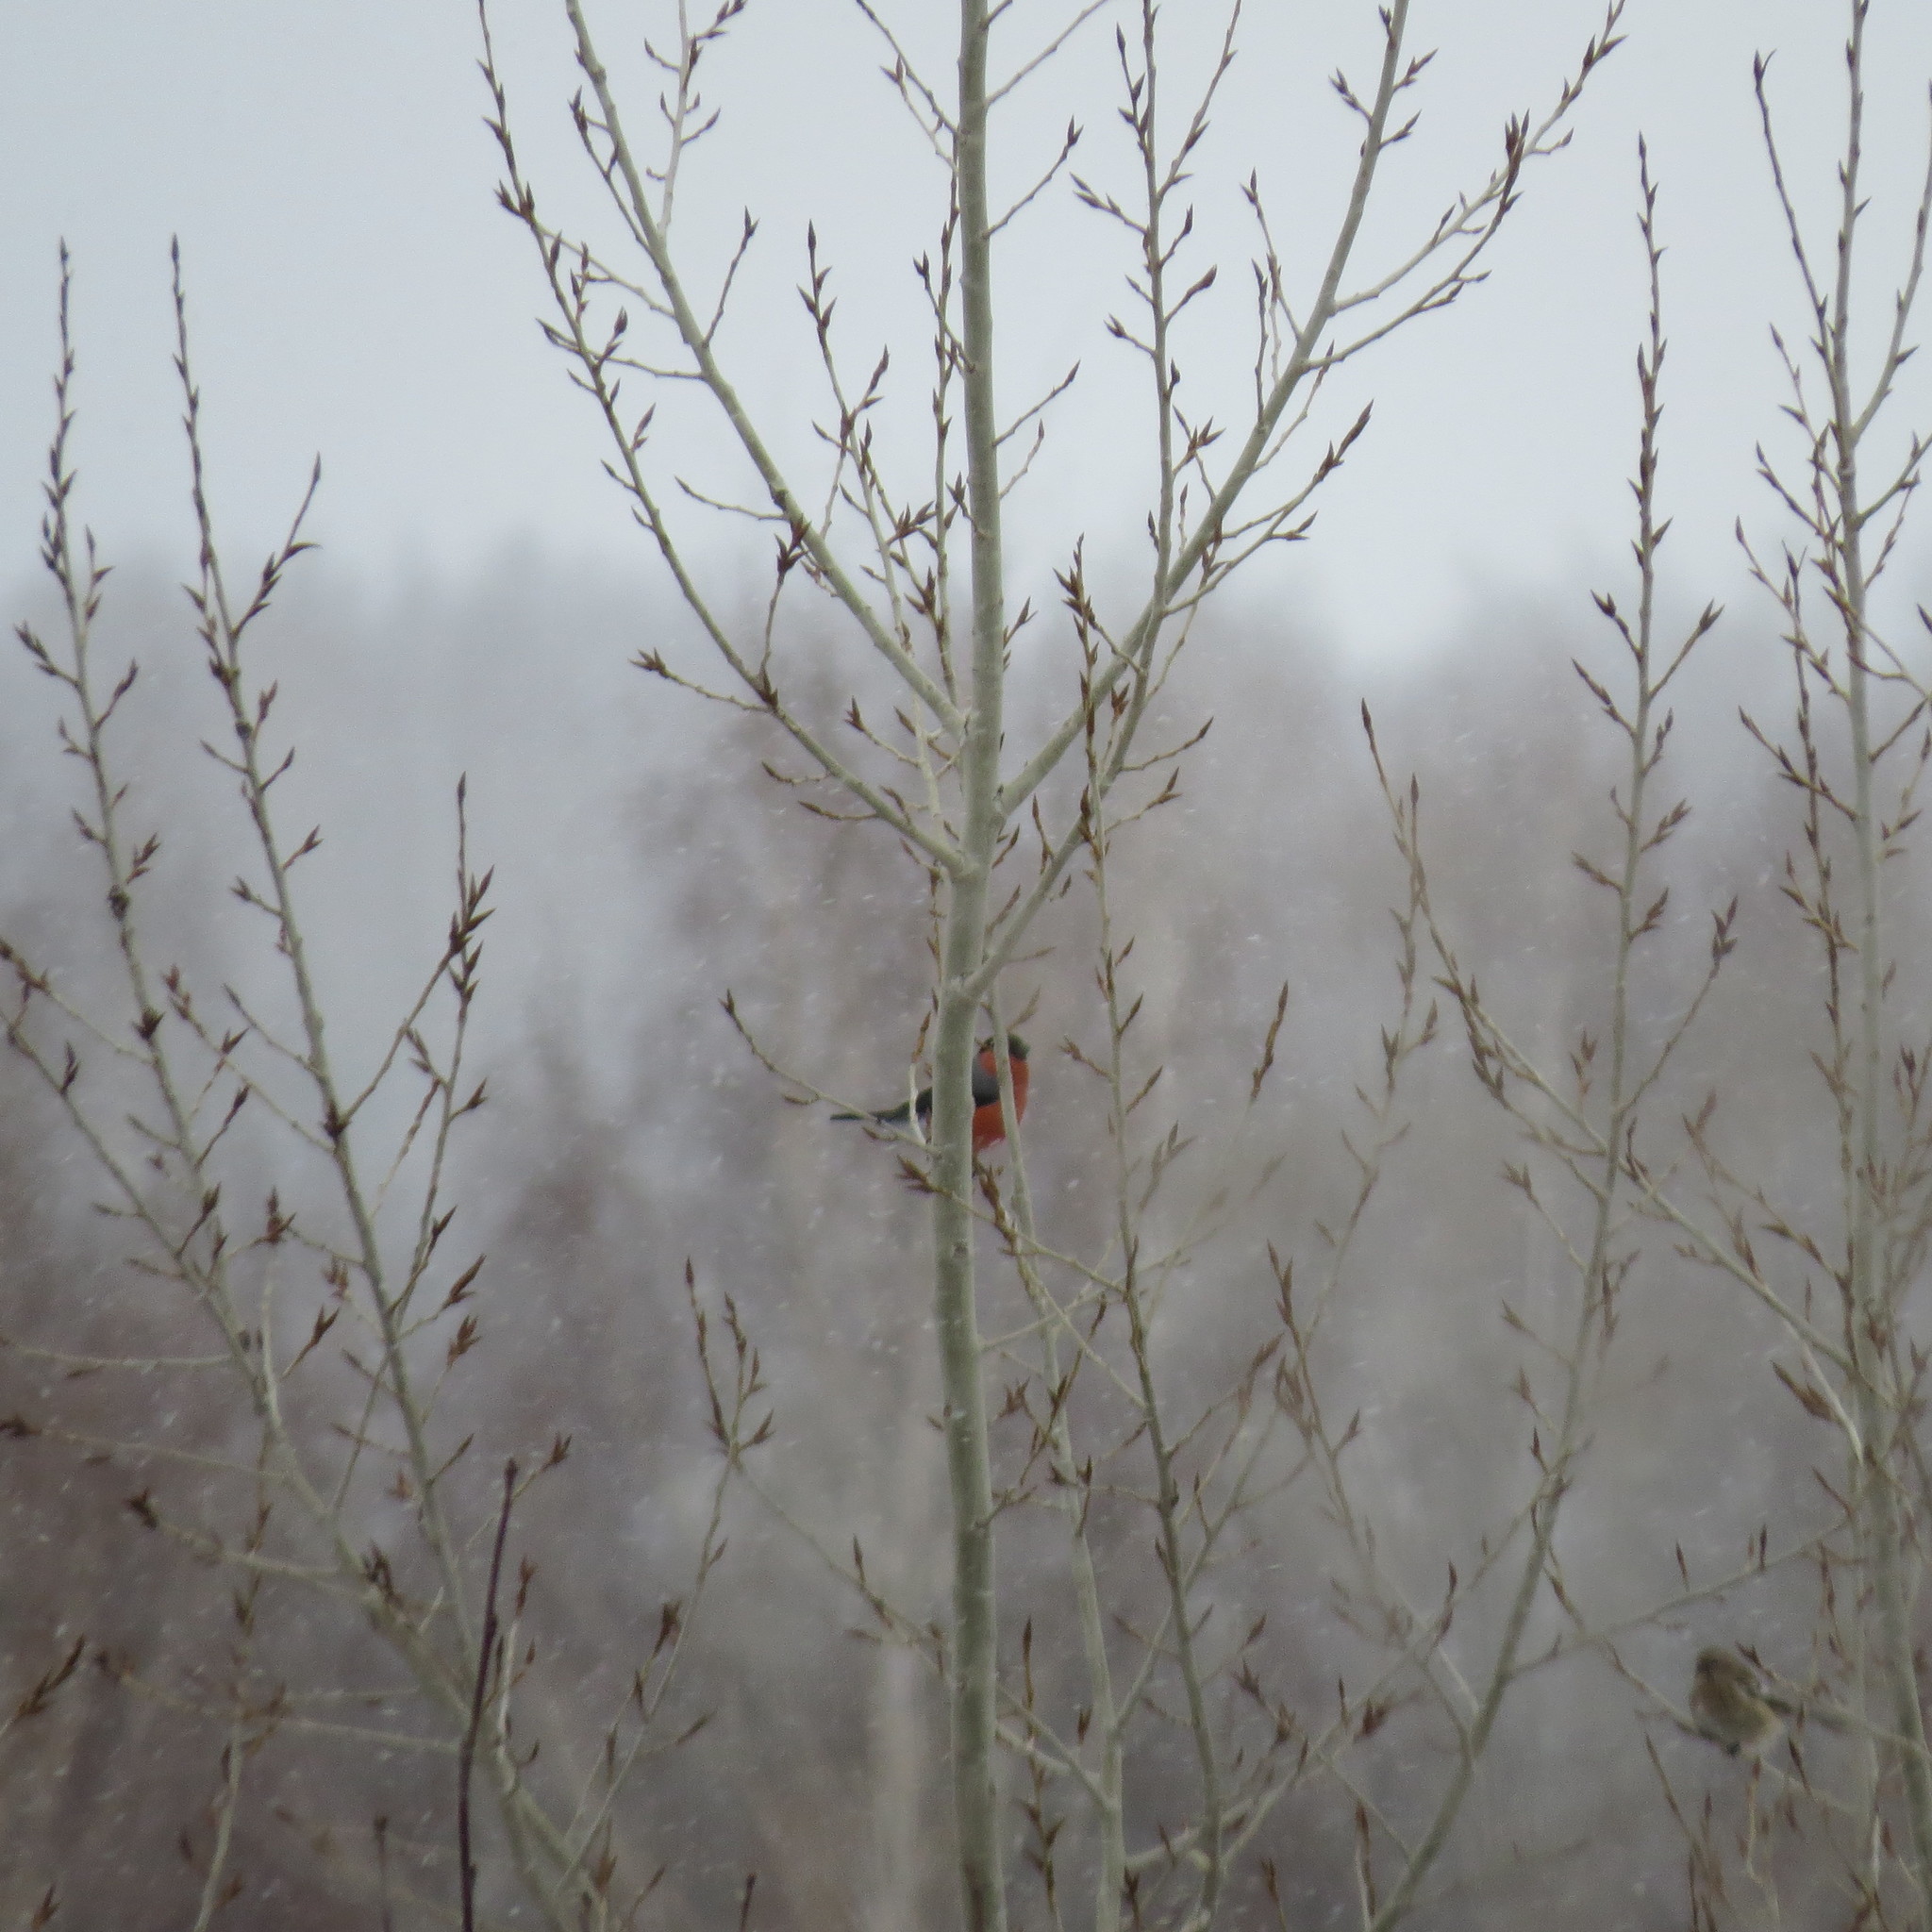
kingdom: Animalia
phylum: Chordata
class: Aves
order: Passeriformes
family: Fringillidae
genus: Pyrrhula
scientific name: Pyrrhula pyrrhula
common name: Eurasian bullfinch
